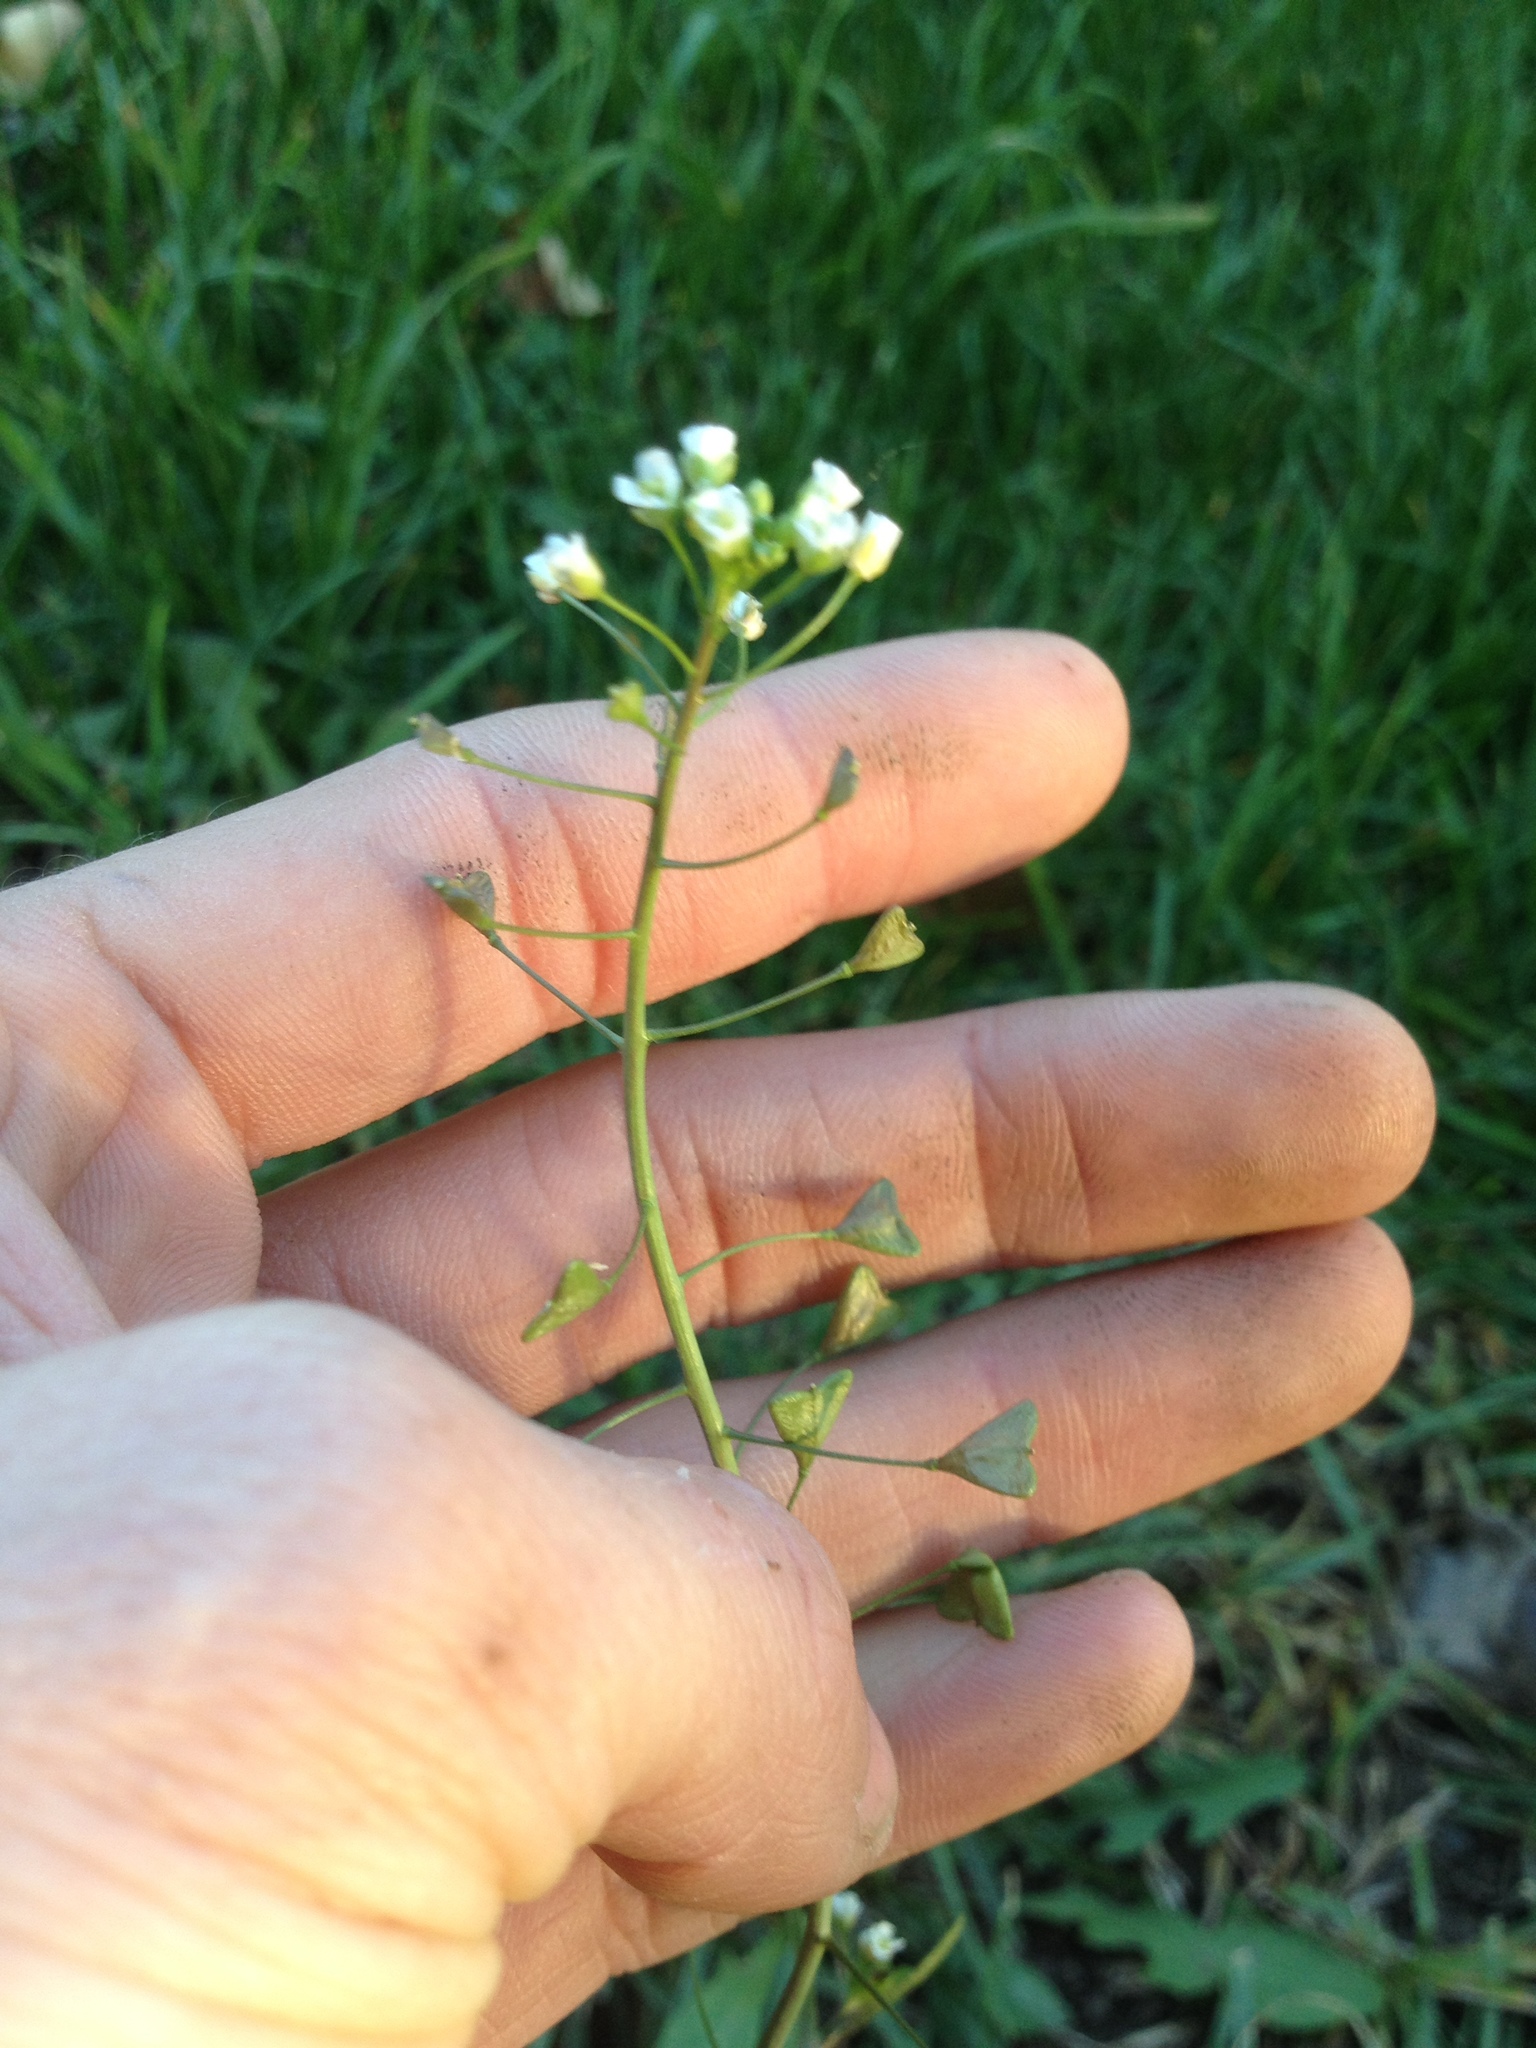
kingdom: Plantae
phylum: Tracheophyta
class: Magnoliopsida
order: Brassicales
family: Brassicaceae
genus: Capsella
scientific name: Capsella bursa-pastoris
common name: Shepherd's purse
